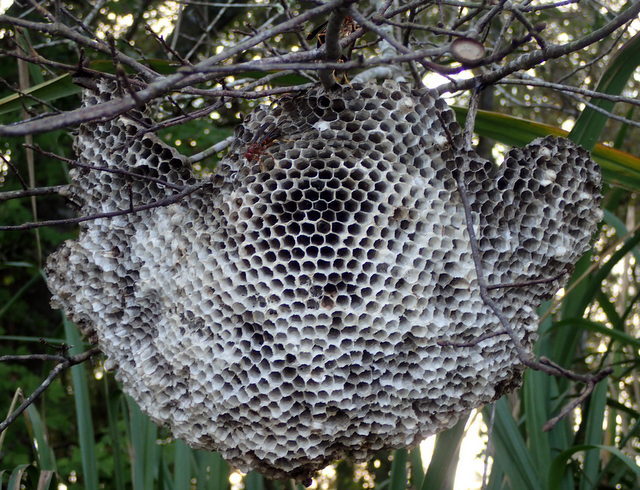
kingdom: Animalia
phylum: Arthropoda
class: Insecta
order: Hymenoptera
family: Eumenidae
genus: Polistes
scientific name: Polistes annularis
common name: Ringed paper wasp
